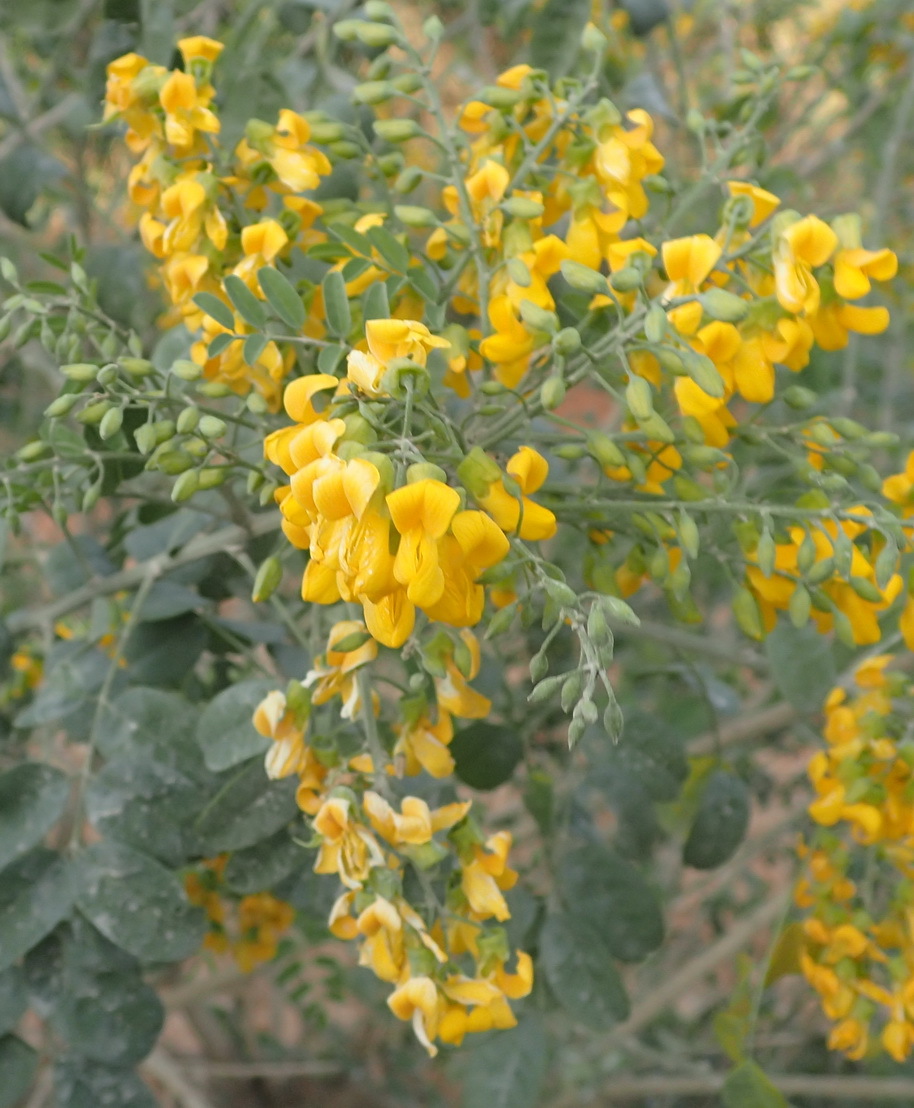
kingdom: Plantae
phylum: Tracheophyta
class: Magnoliopsida
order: Fabales
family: Fabaceae
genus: Calpurnia
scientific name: Calpurnia glabrata
